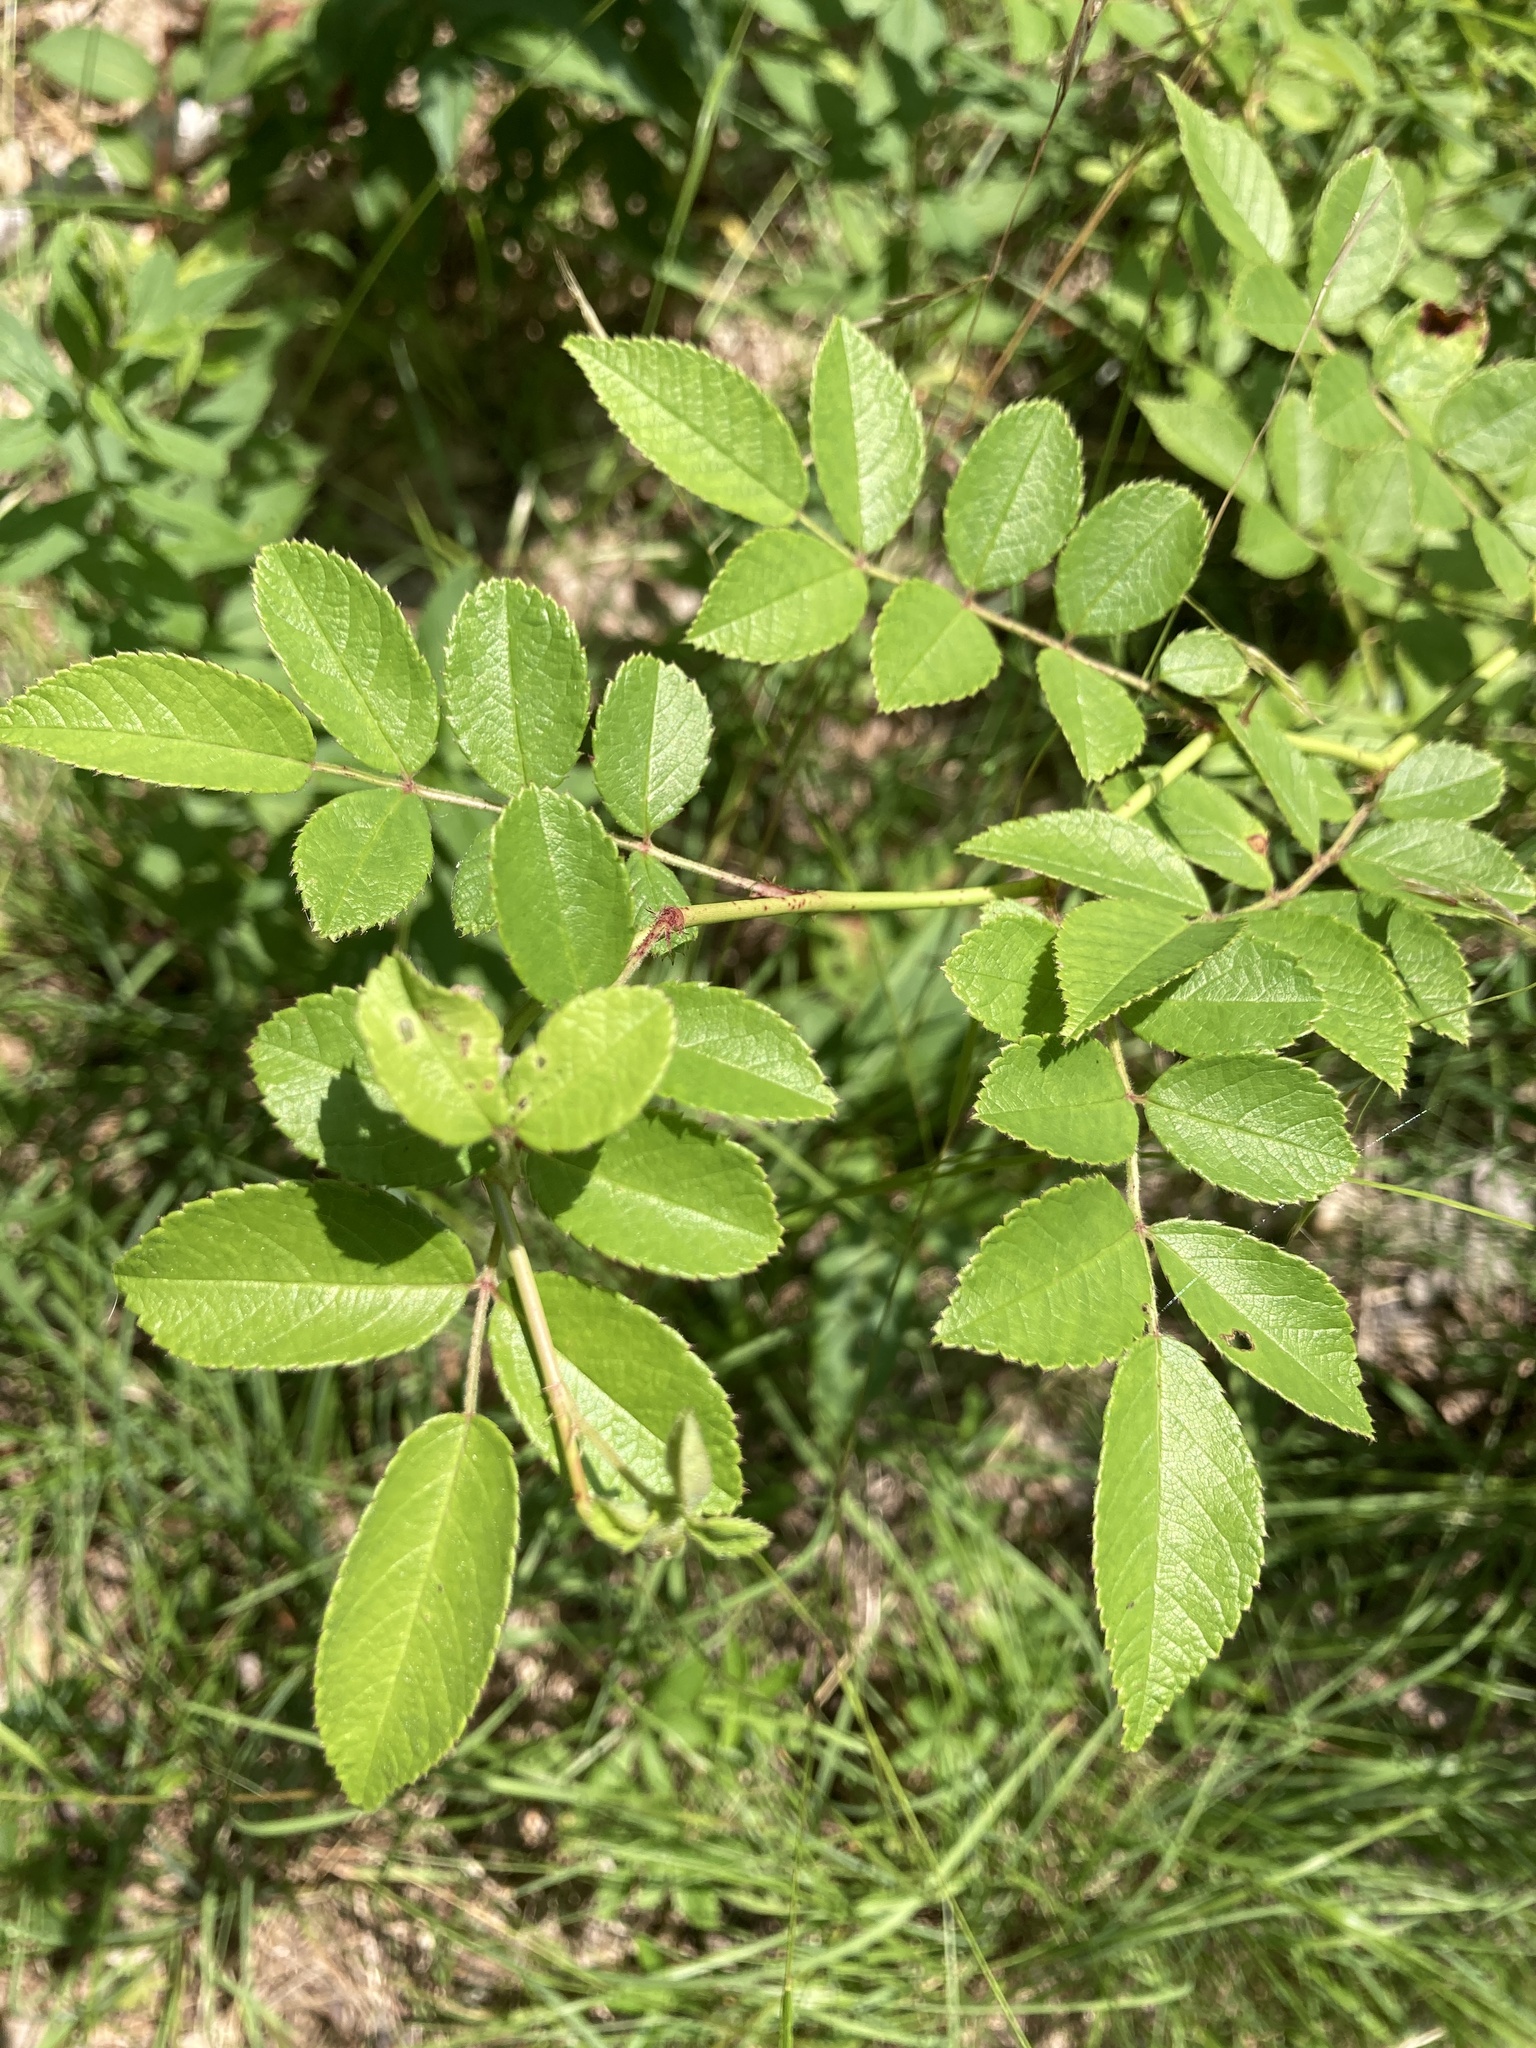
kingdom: Plantae
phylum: Tracheophyta
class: Magnoliopsida
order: Rosales
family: Rosaceae
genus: Rosa
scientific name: Rosa multiflora
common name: Multiflora rose
